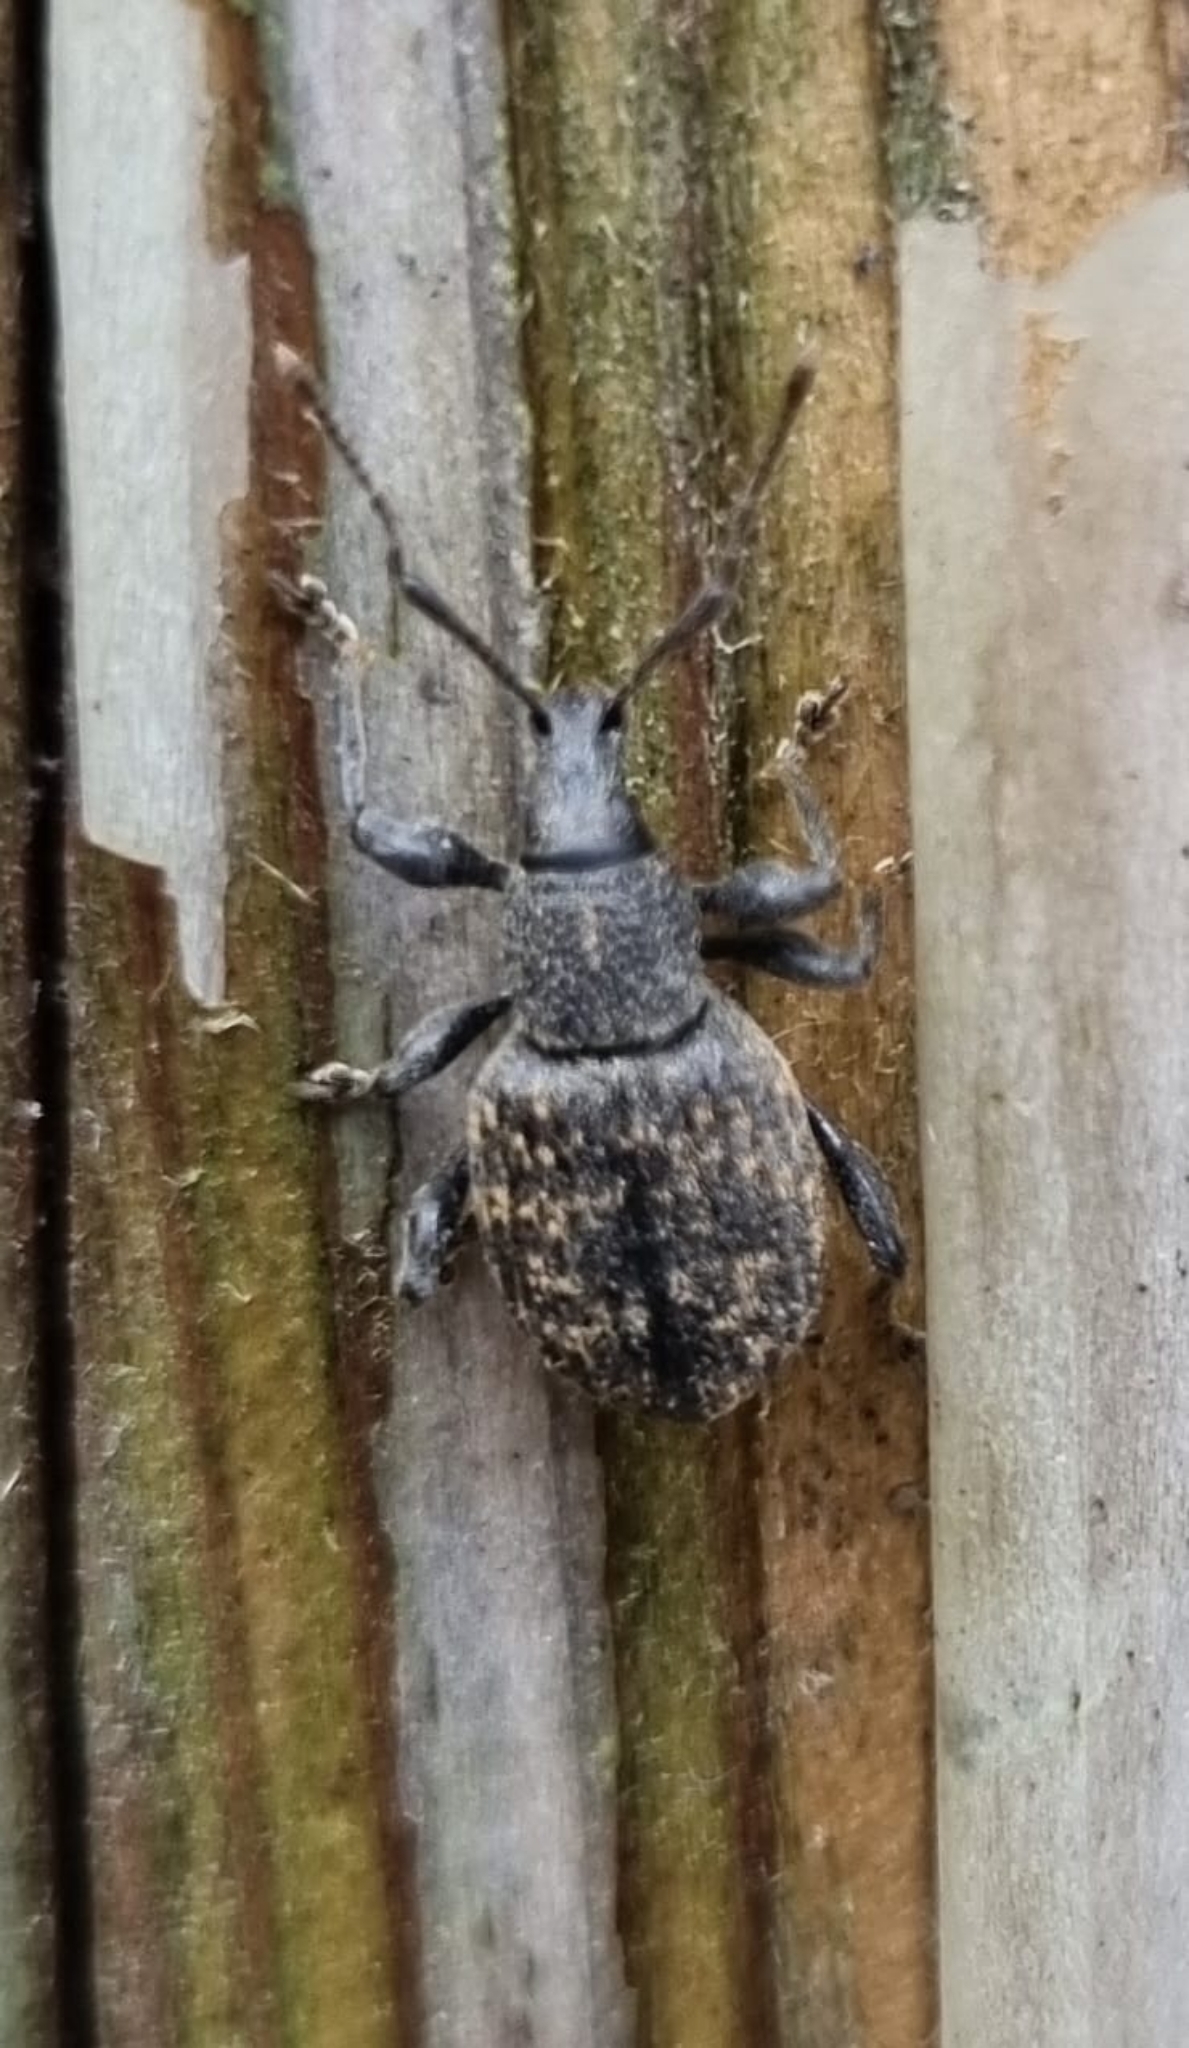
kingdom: Animalia
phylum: Arthropoda
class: Insecta
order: Coleoptera
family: Curculionidae
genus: Otiorhynchus
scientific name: Otiorhynchus sulcatus
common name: Black vine weevil
